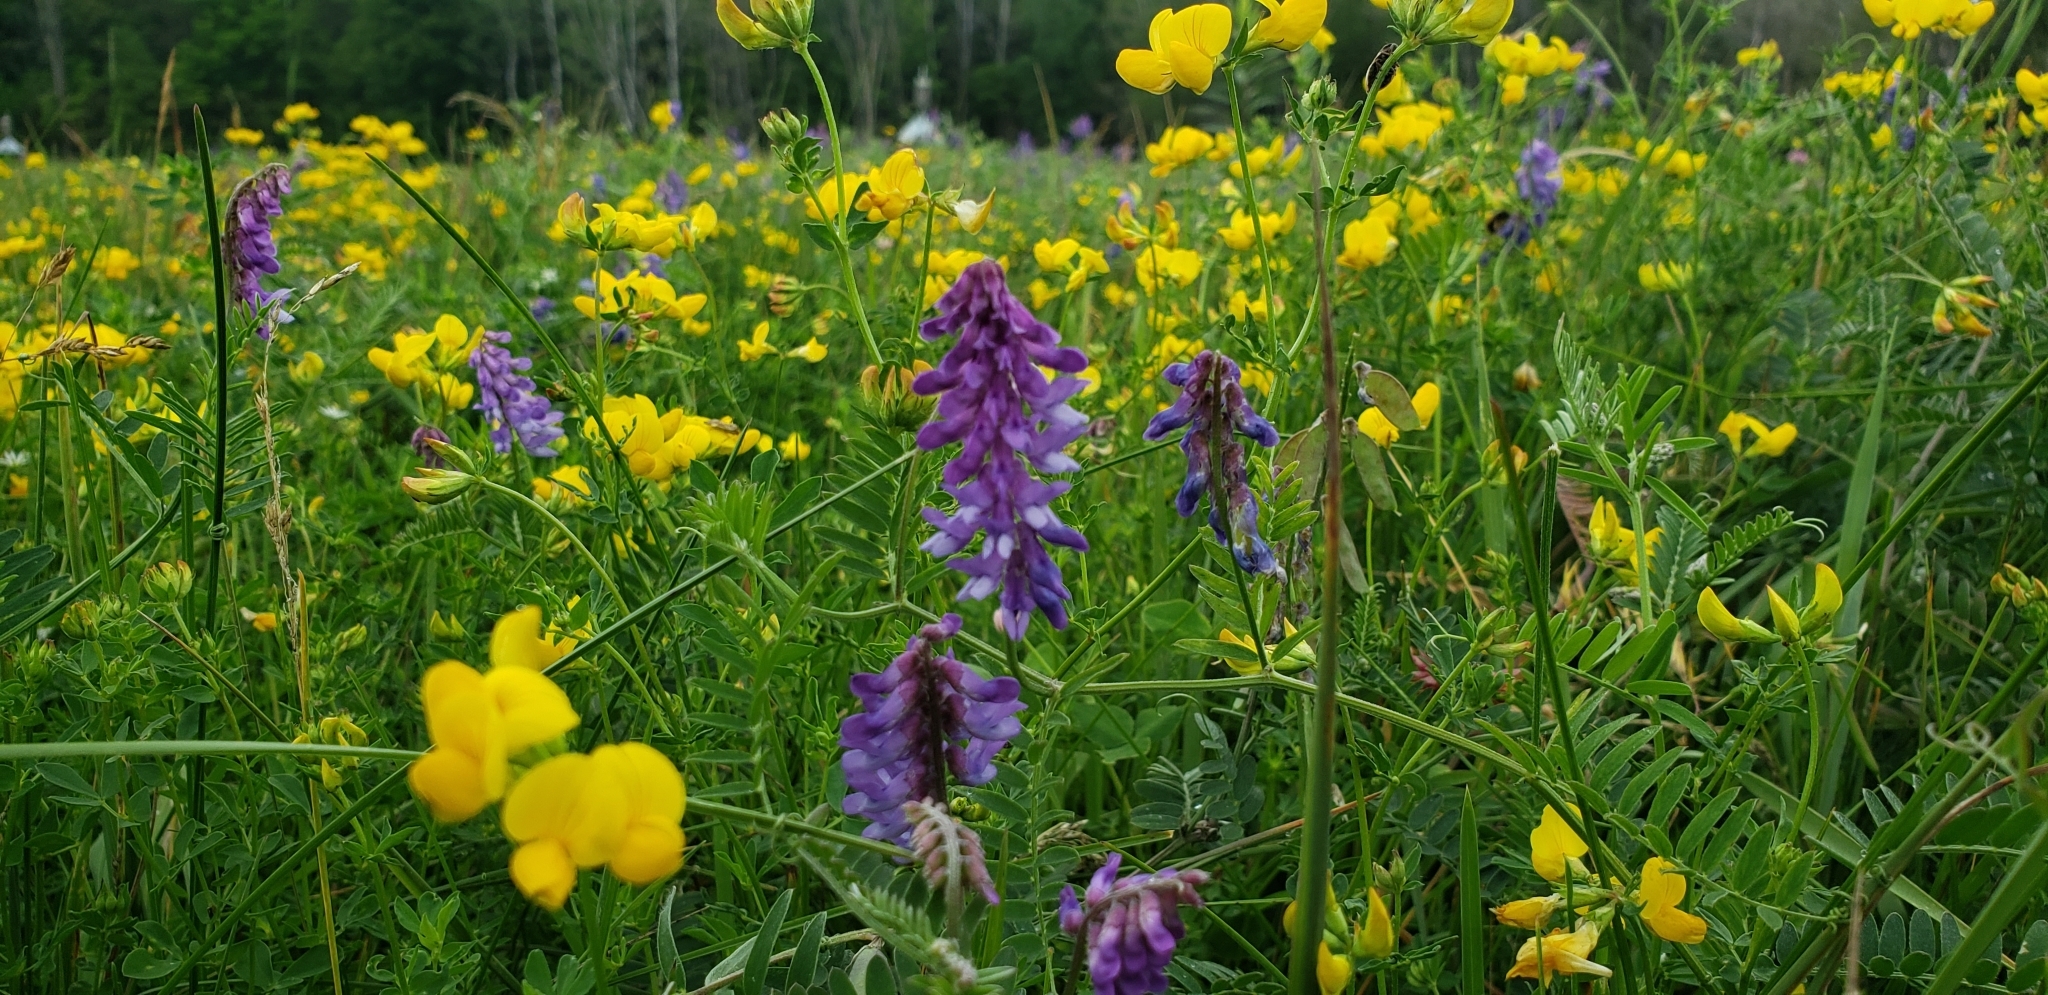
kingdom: Plantae
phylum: Tracheophyta
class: Magnoliopsida
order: Fabales
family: Fabaceae
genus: Vicia
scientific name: Vicia cracca
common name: Bird vetch
